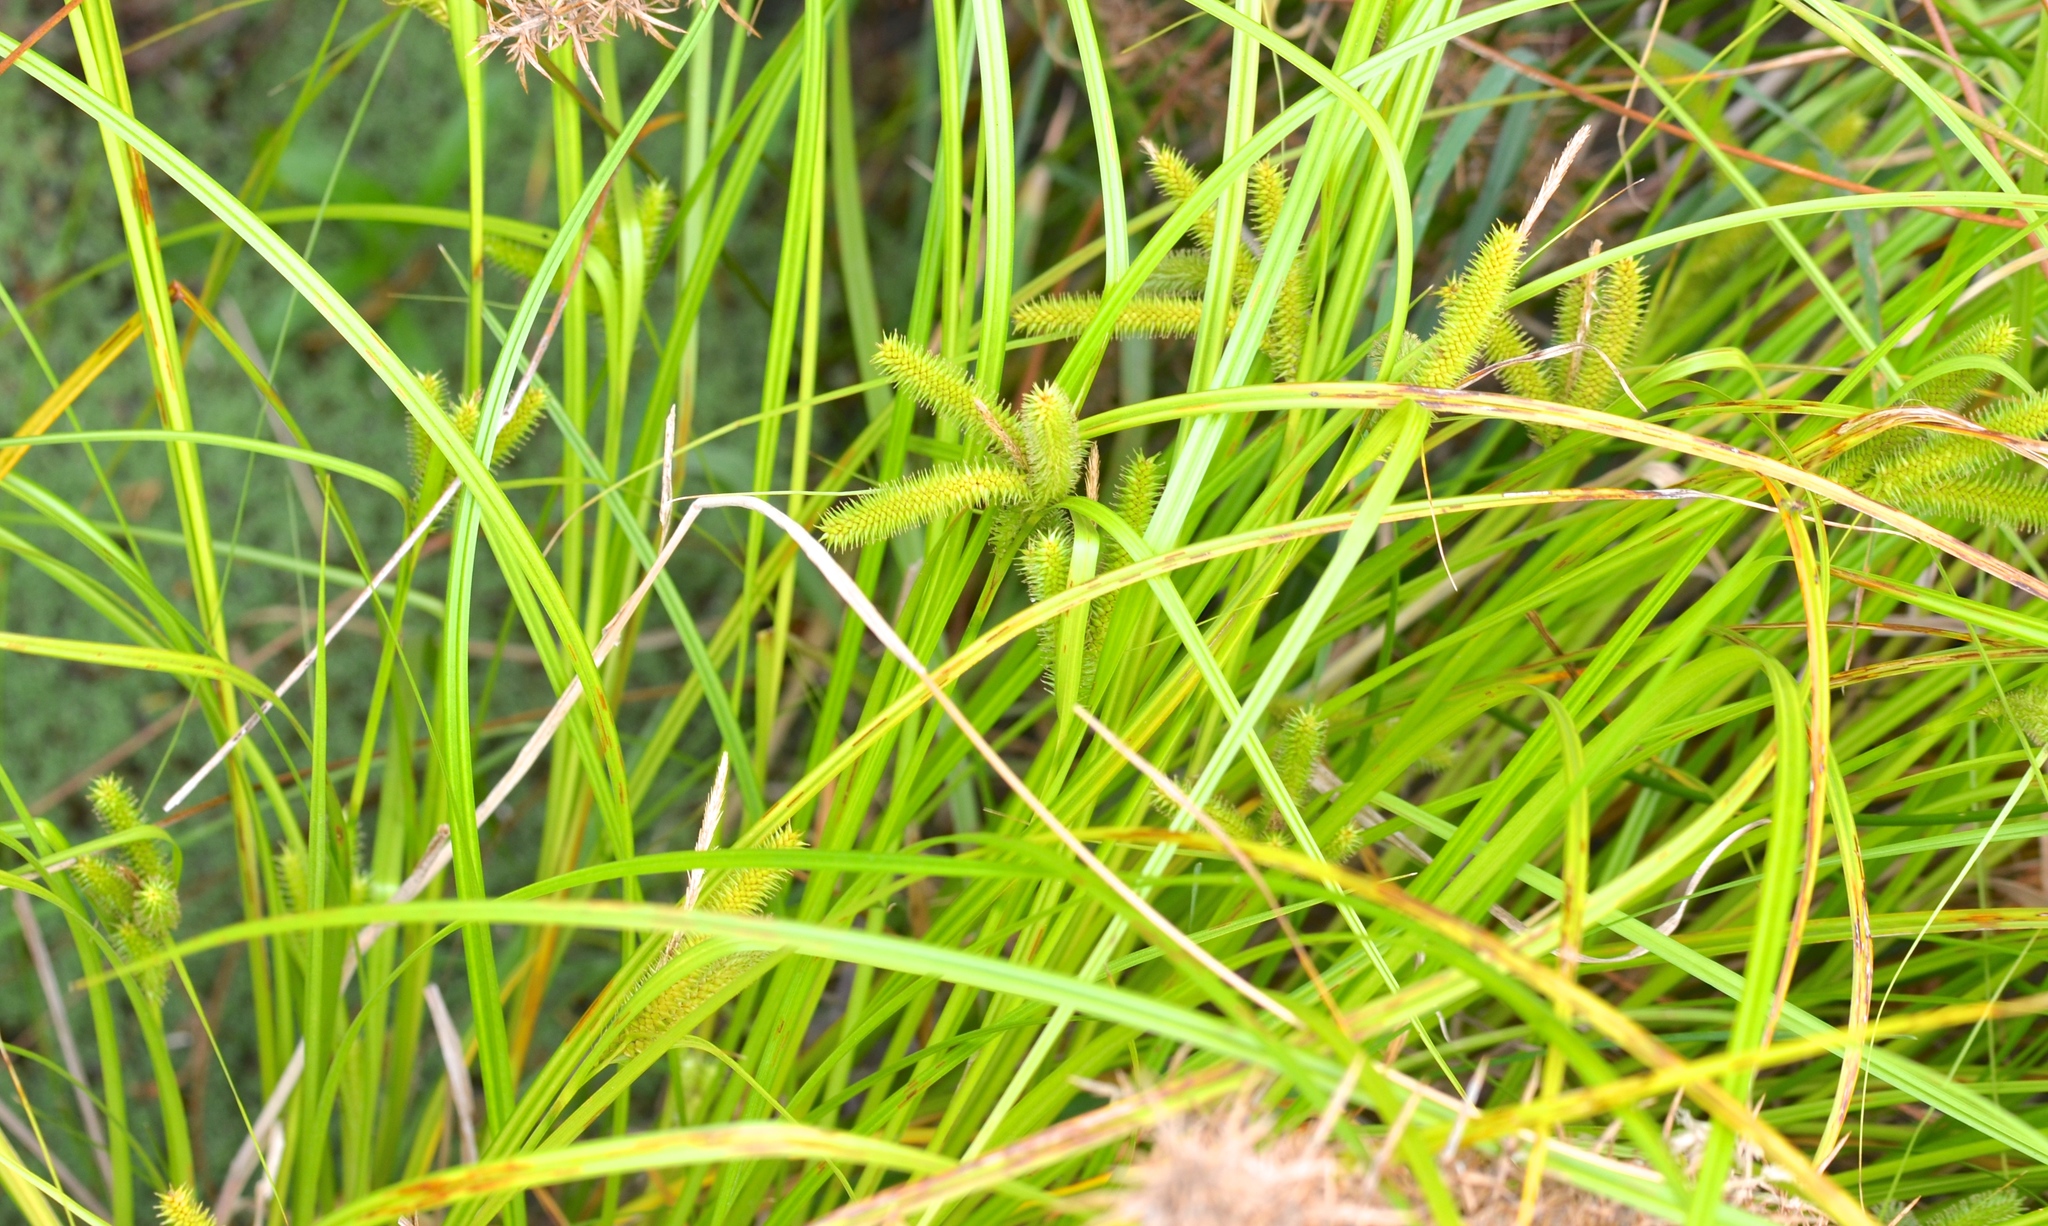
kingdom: Plantae
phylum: Tracheophyta
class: Liliopsida
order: Poales
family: Cyperaceae
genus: Carex
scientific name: Carex maorica
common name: Maori sedge
